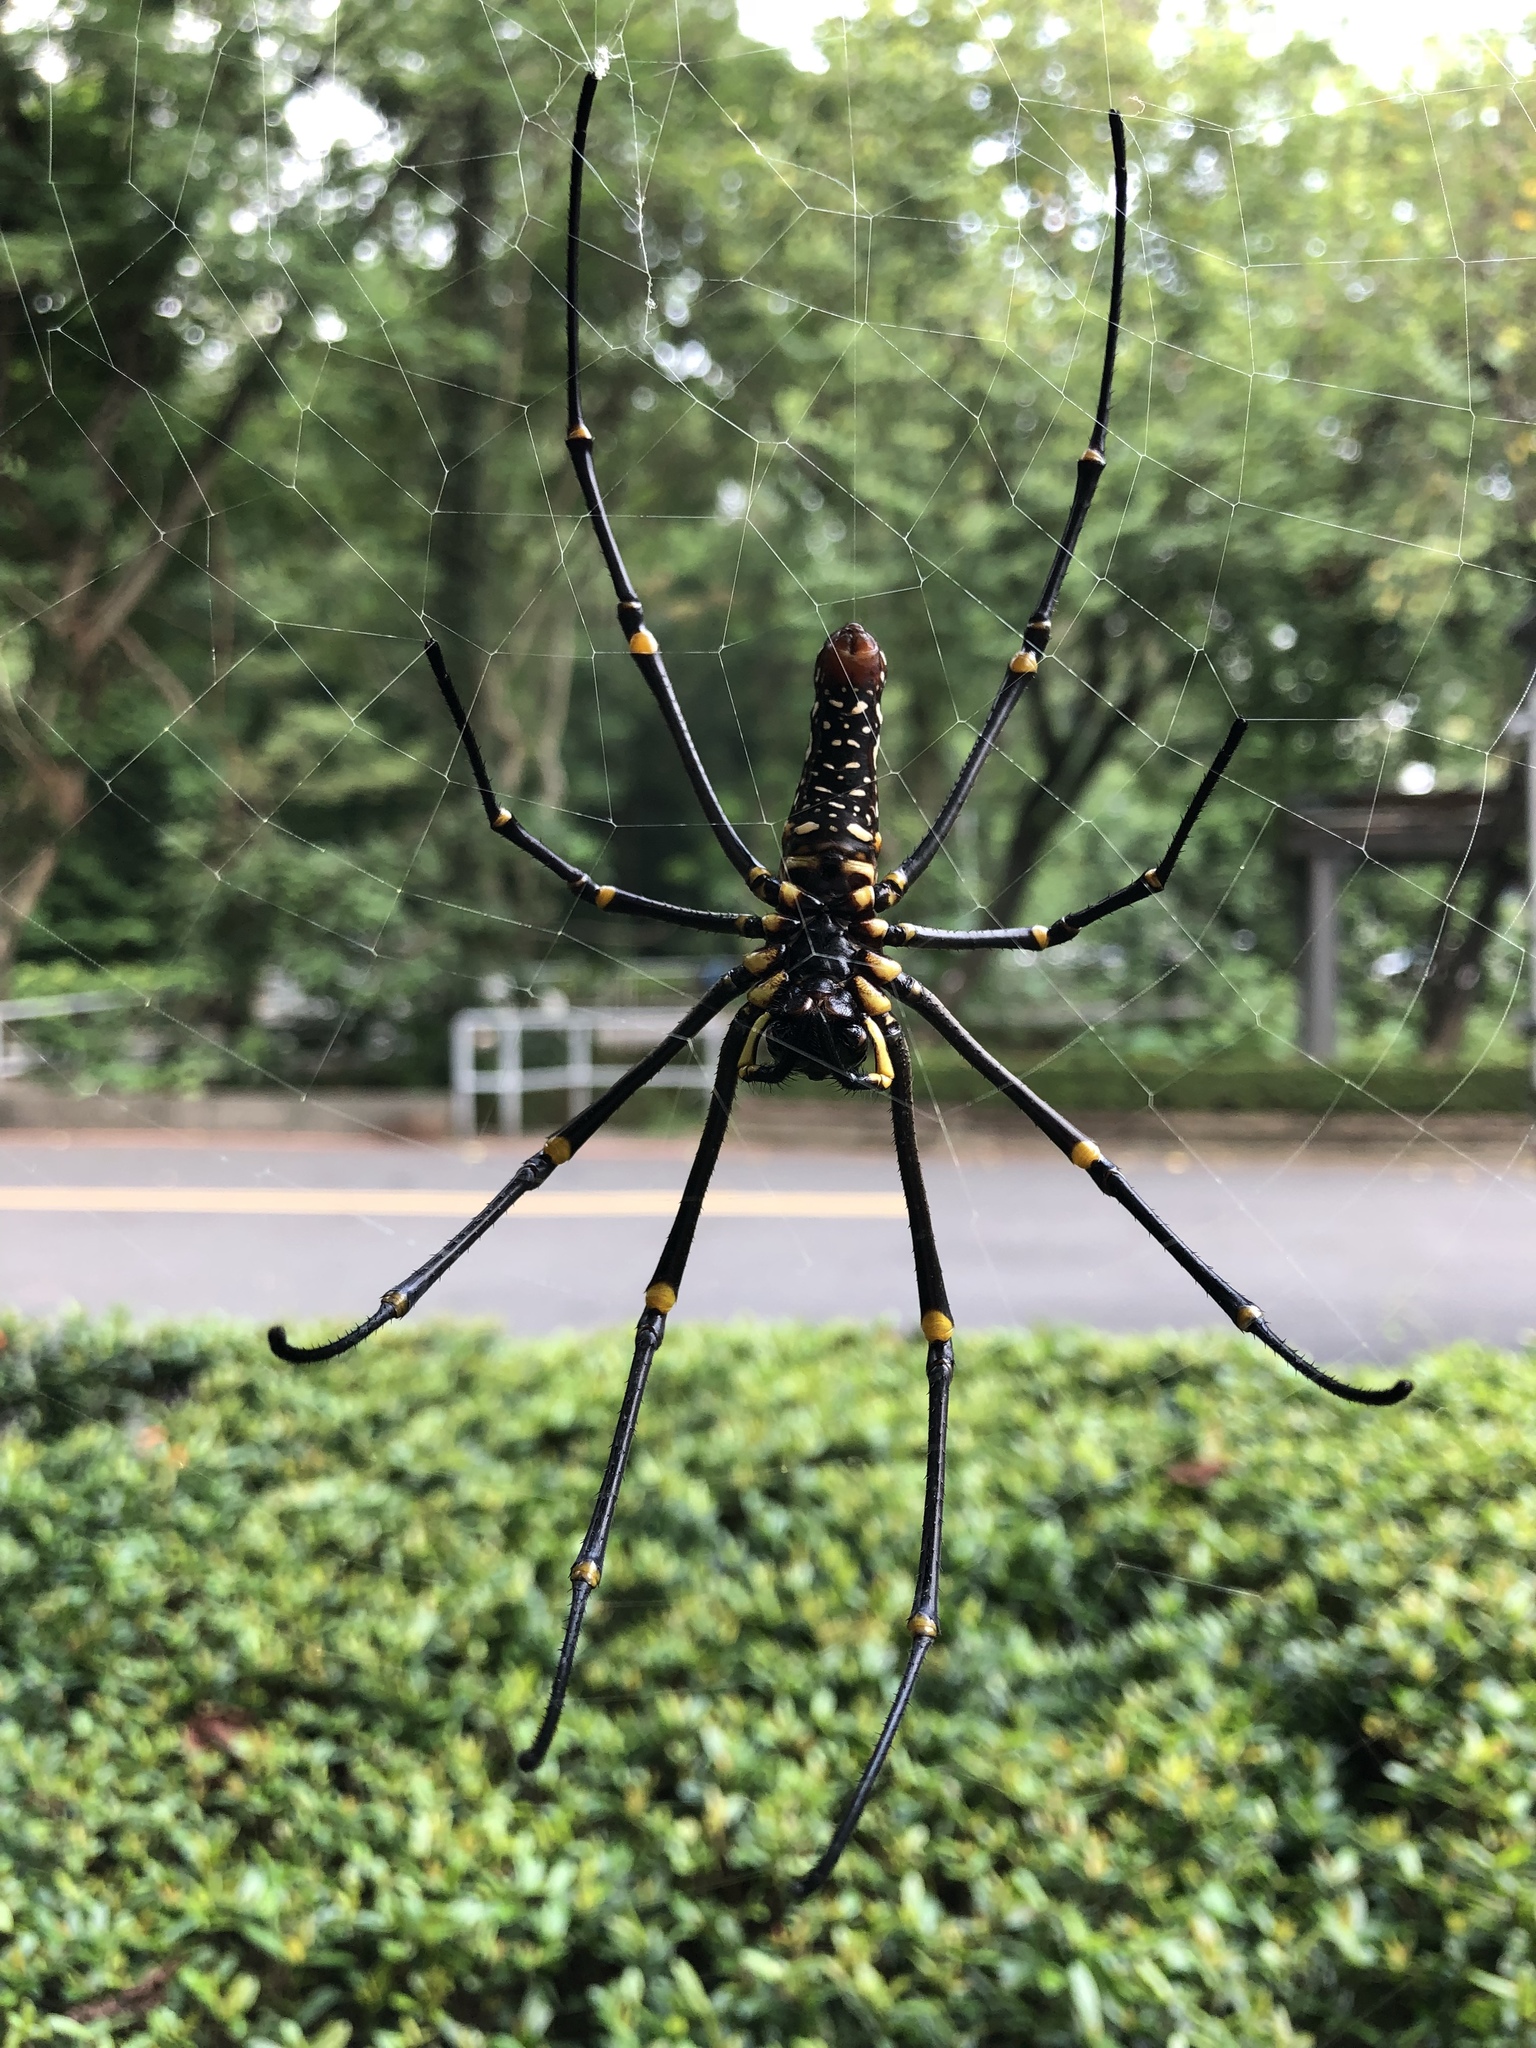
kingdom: Animalia
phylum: Arthropoda
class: Arachnida
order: Araneae
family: Araneidae
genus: Nephila
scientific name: Nephila pilipes
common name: Giant golden orb weaver
